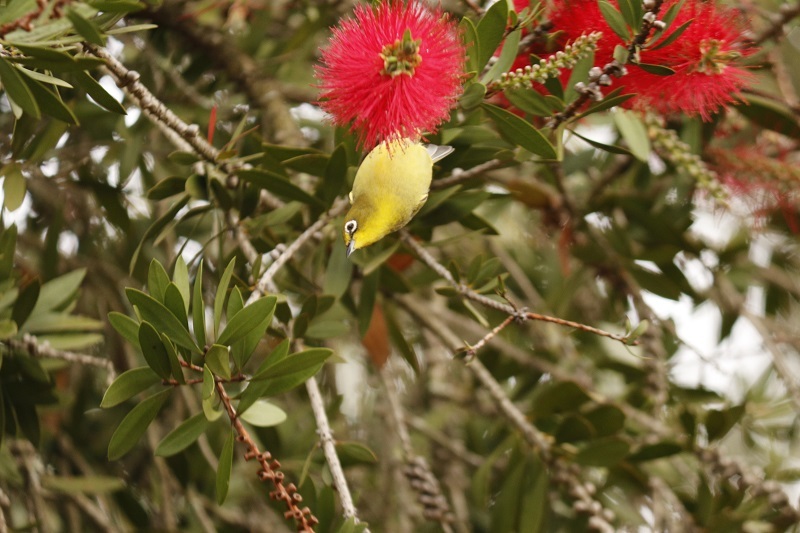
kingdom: Animalia
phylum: Chordata
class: Aves
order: Passeriformes
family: Zosteropidae
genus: Zosterops
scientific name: Zosterops virens
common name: Cape white-eye
